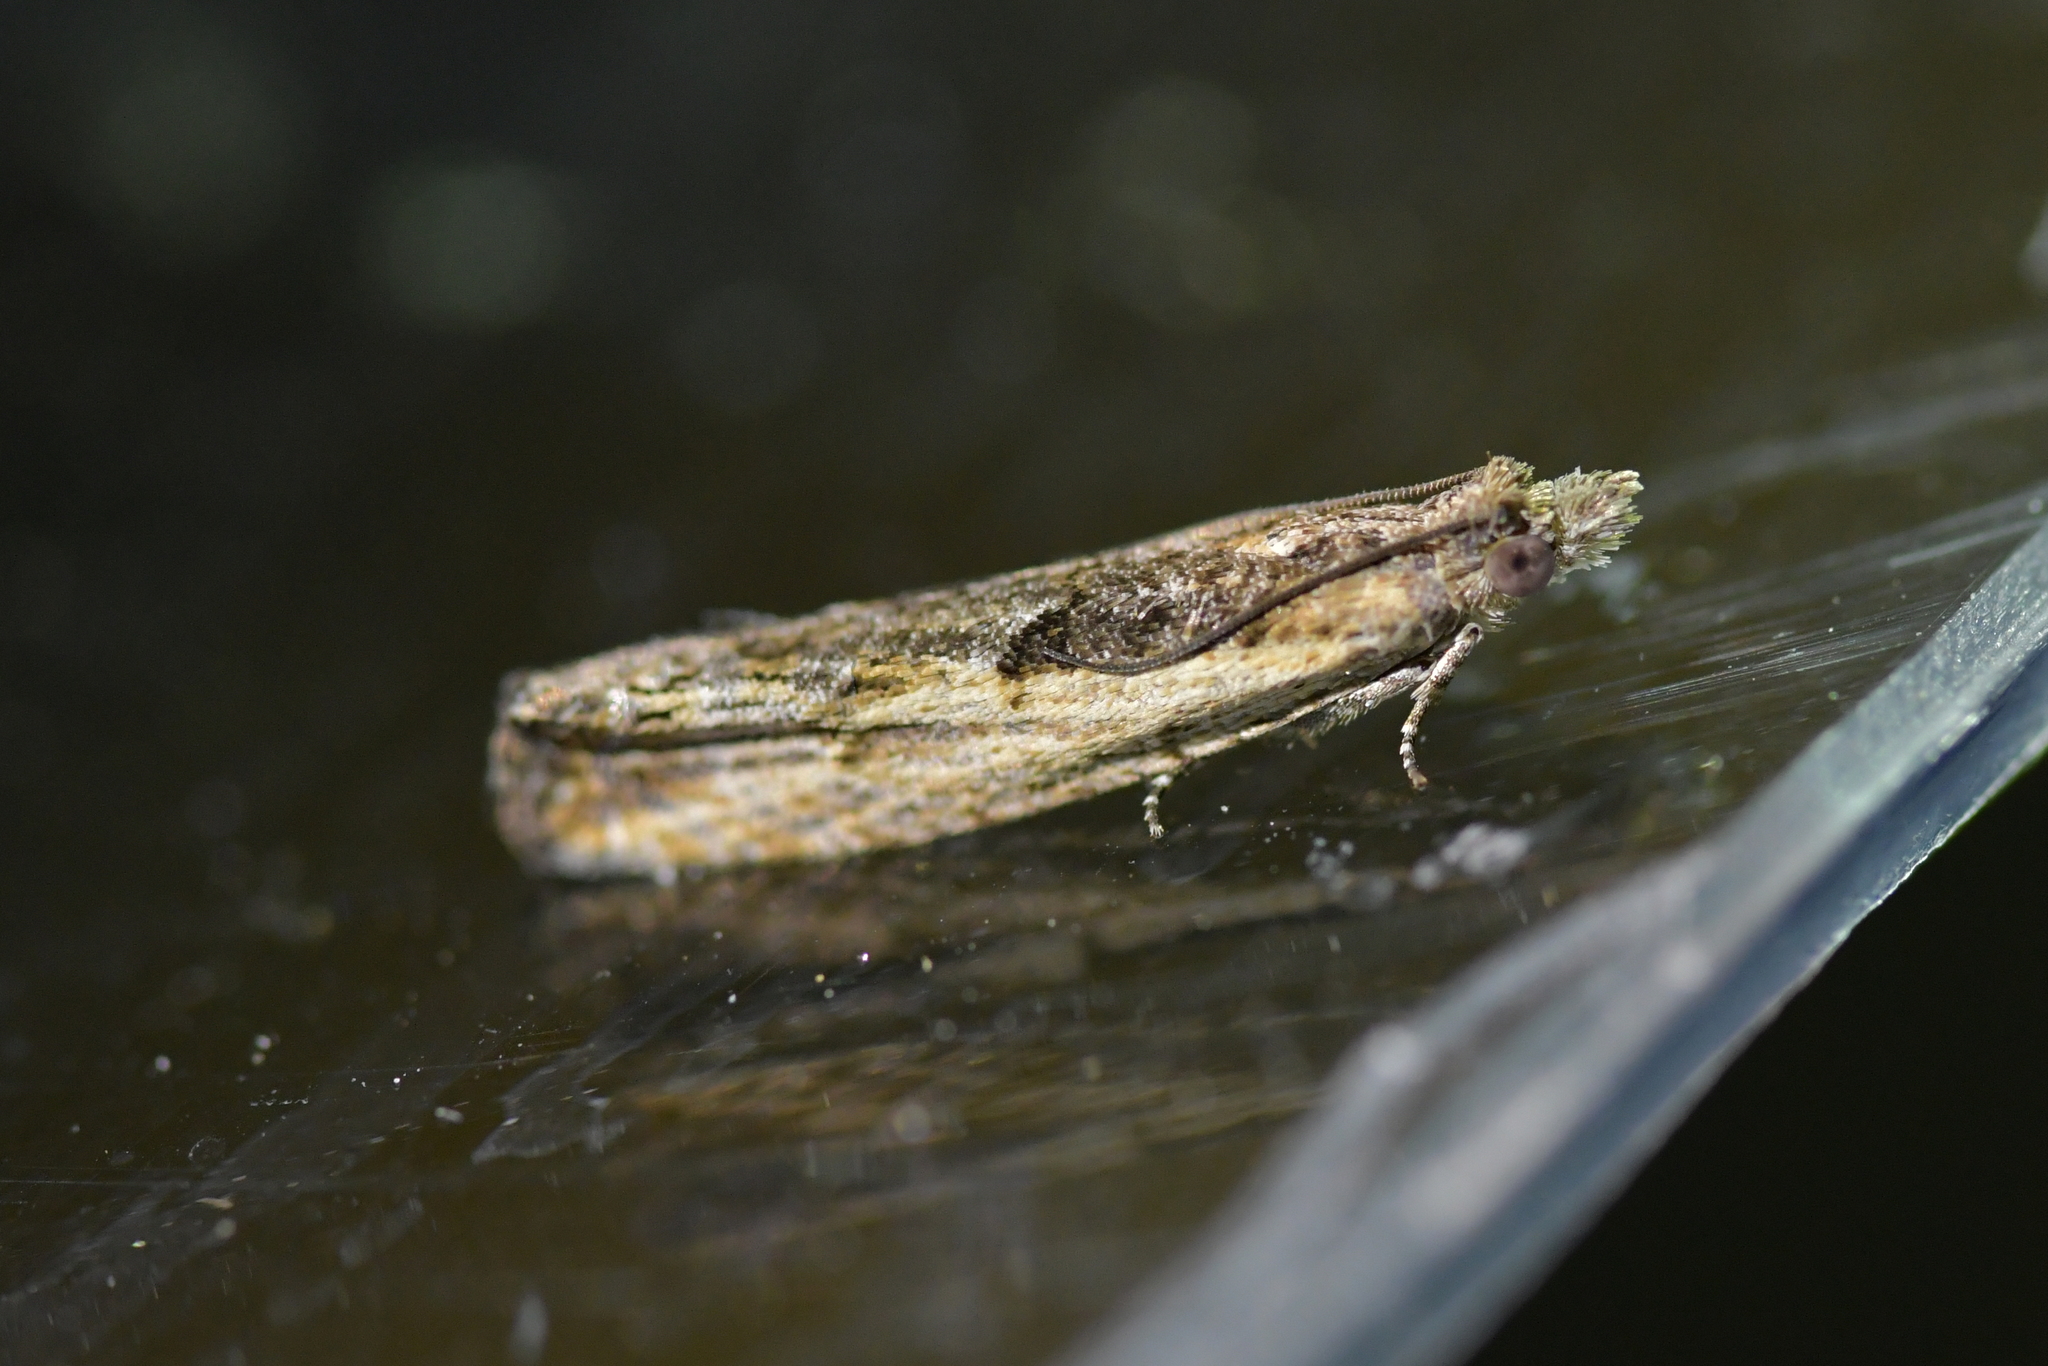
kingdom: Animalia
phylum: Arthropoda
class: Insecta
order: Lepidoptera
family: Tortricidae
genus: Strepsicrates
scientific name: Strepsicrates macropetana
